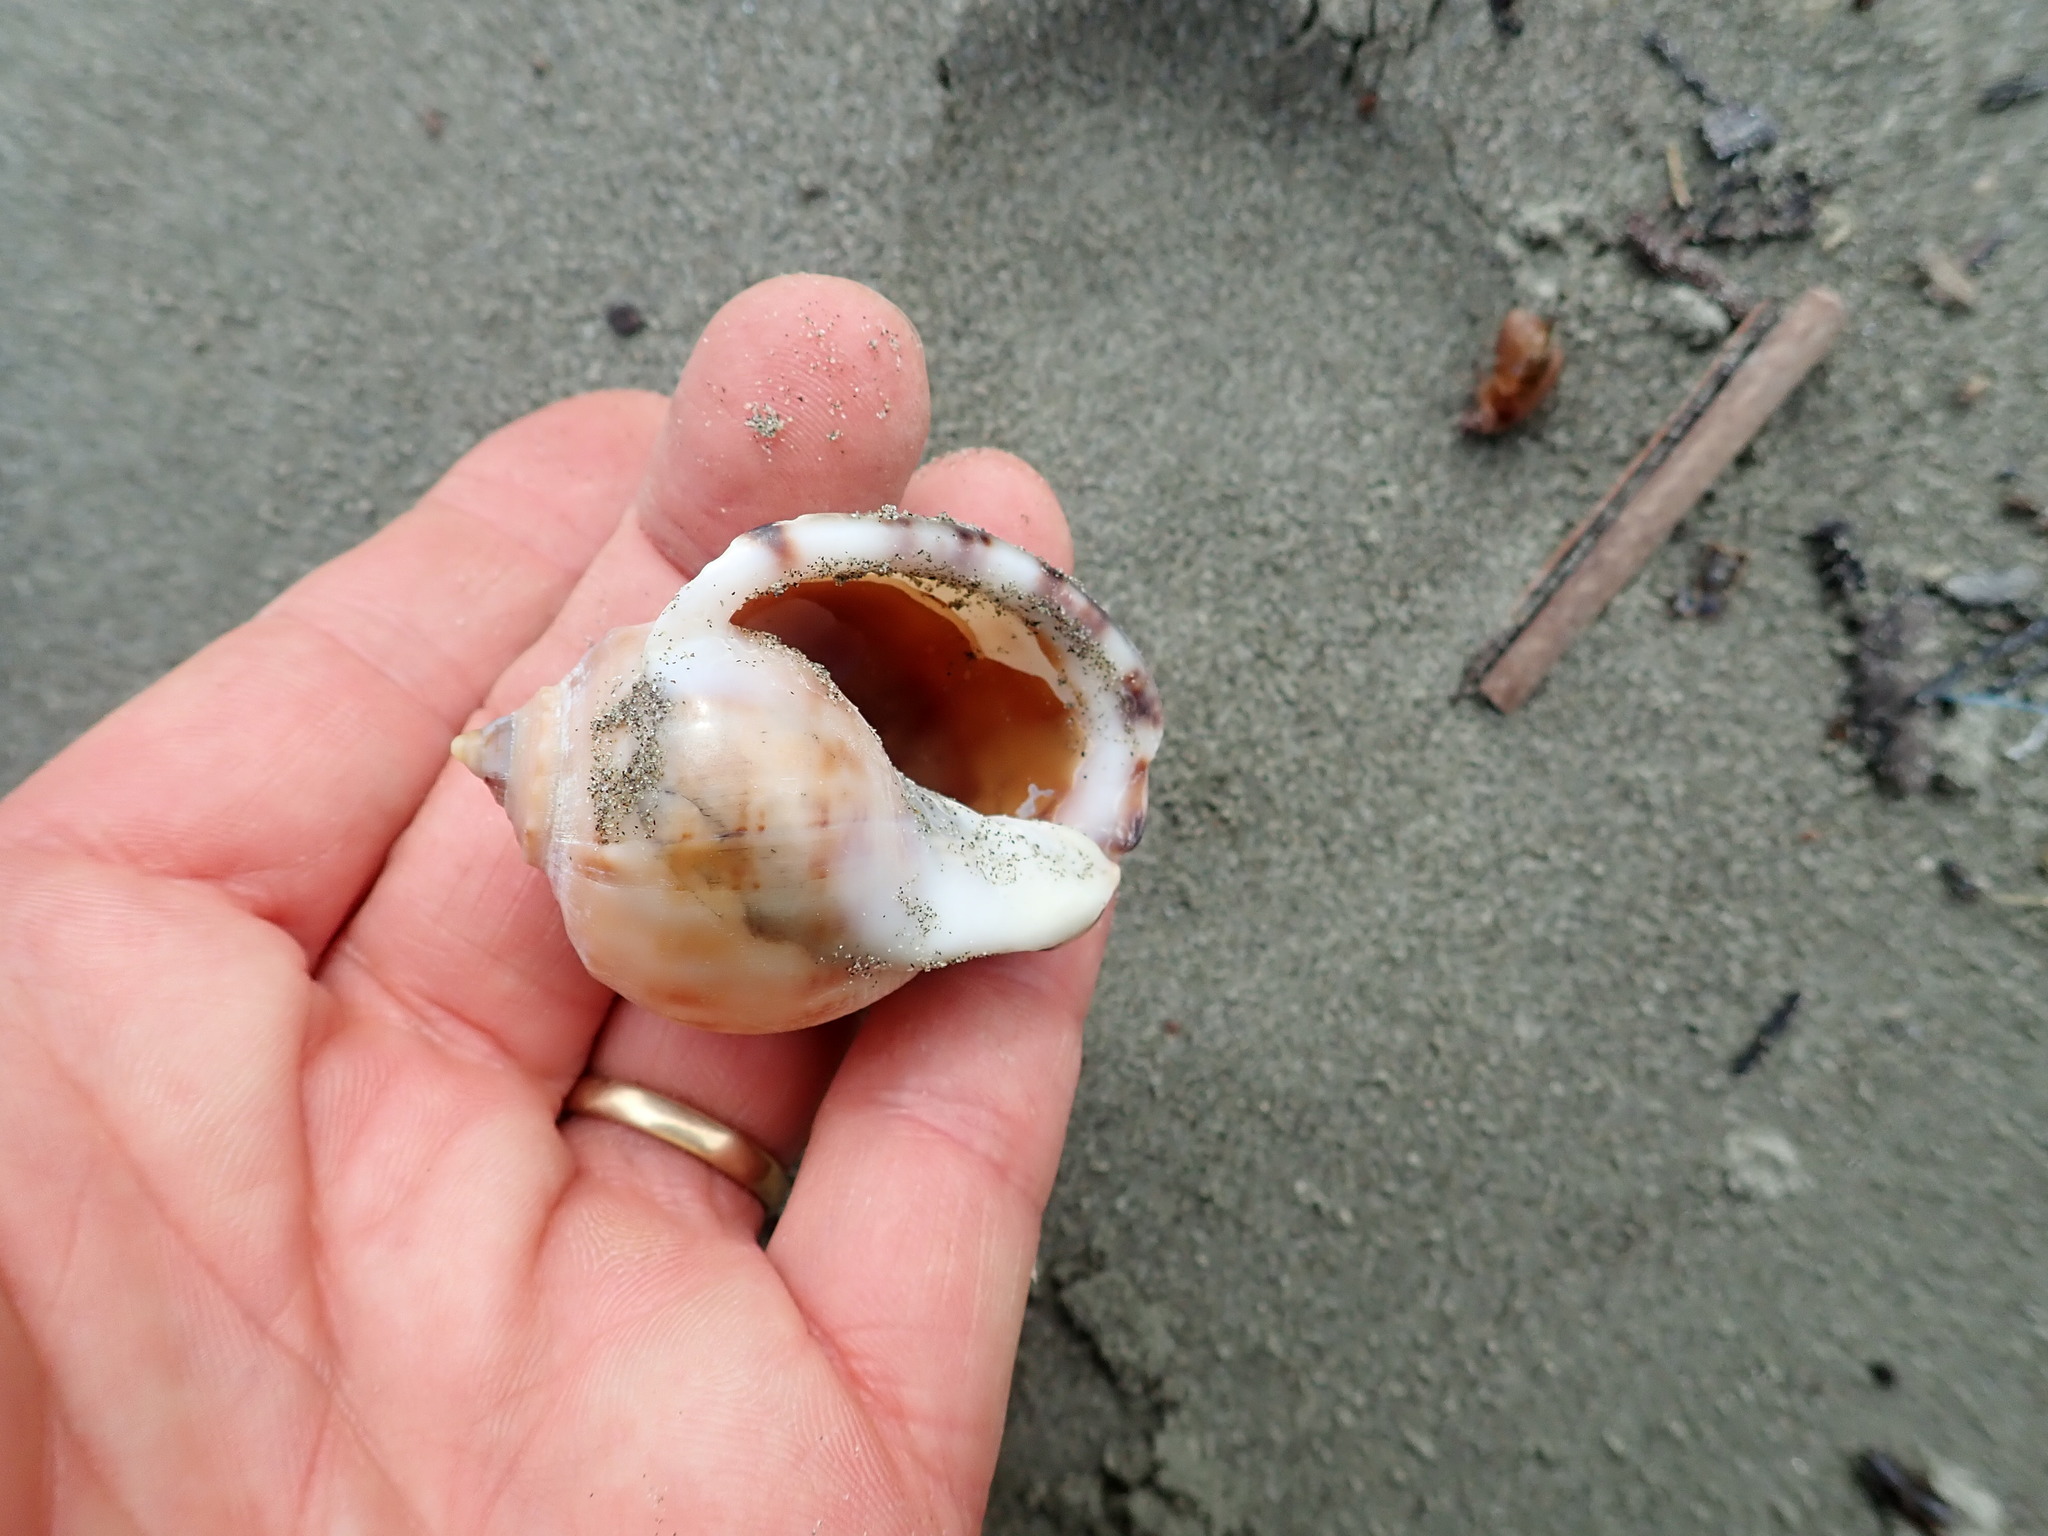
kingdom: Animalia
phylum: Mollusca
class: Gastropoda
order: Littorinimorpha
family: Cassidae
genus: Semicassis
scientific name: Semicassis pyrum
